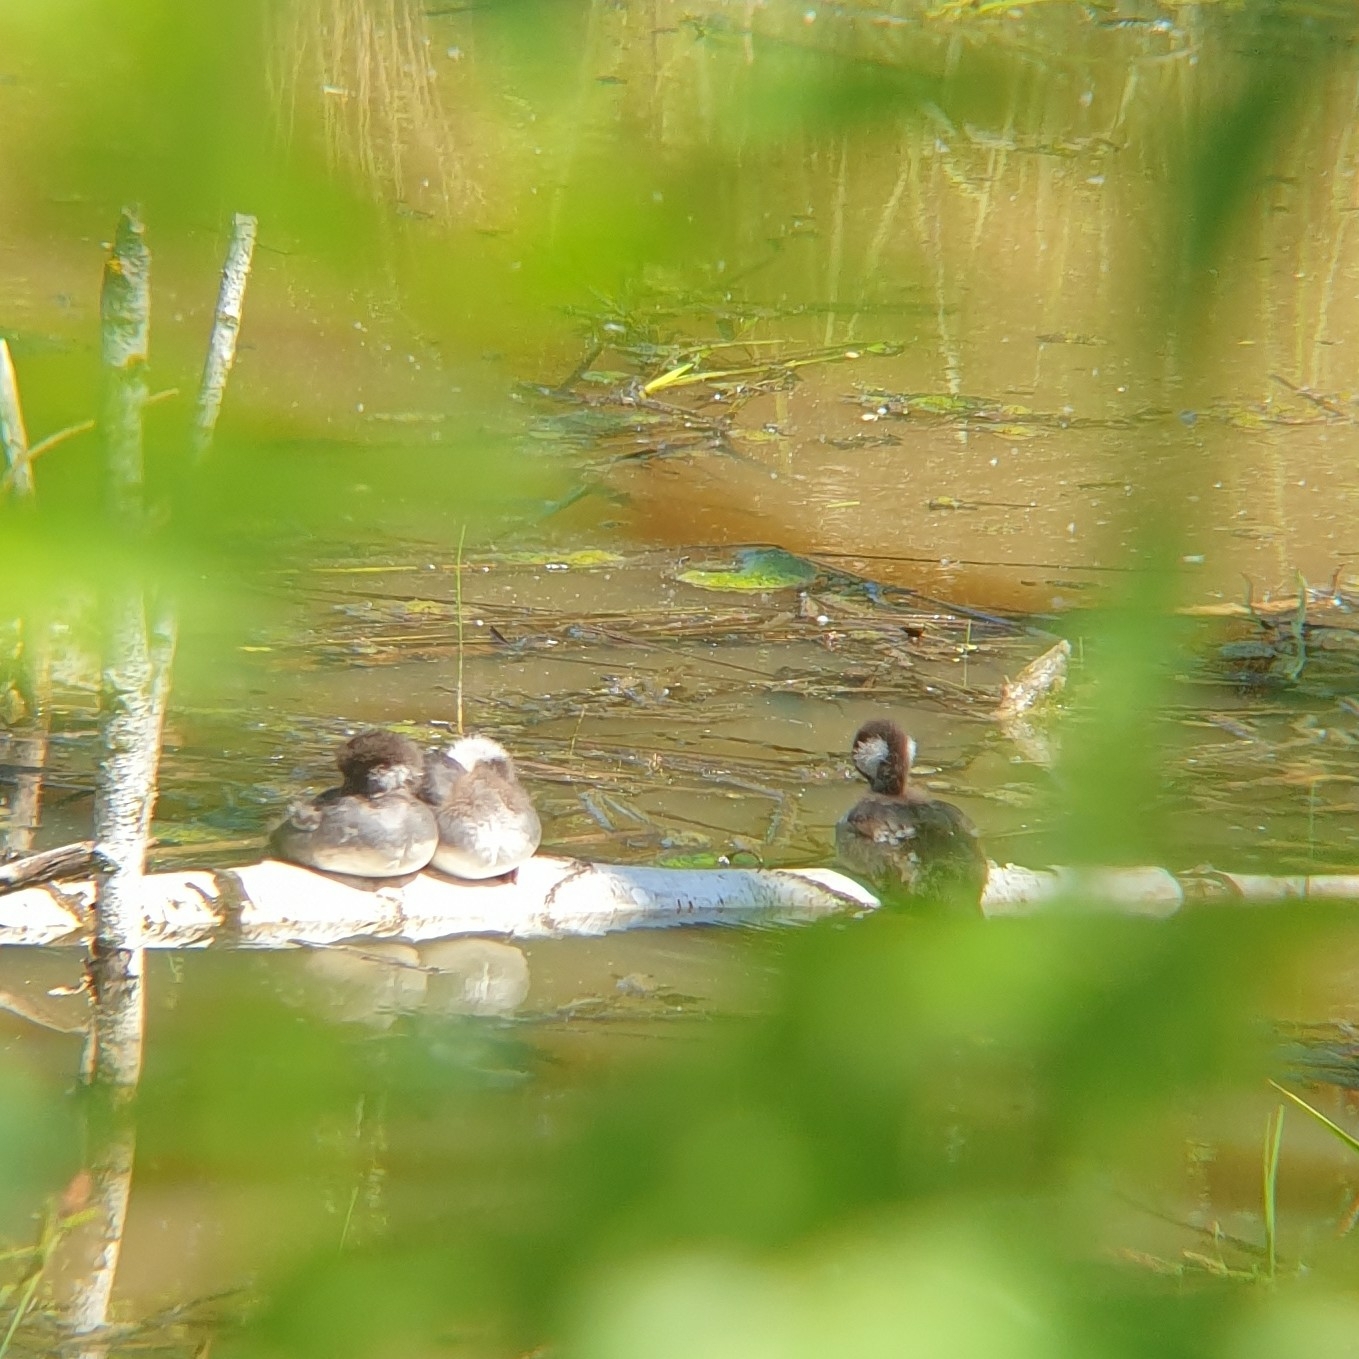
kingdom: Animalia
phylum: Chordata
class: Aves
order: Anseriformes
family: Anatidae
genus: Bucephala
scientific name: Bucephala clangula
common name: Common goldeneye
